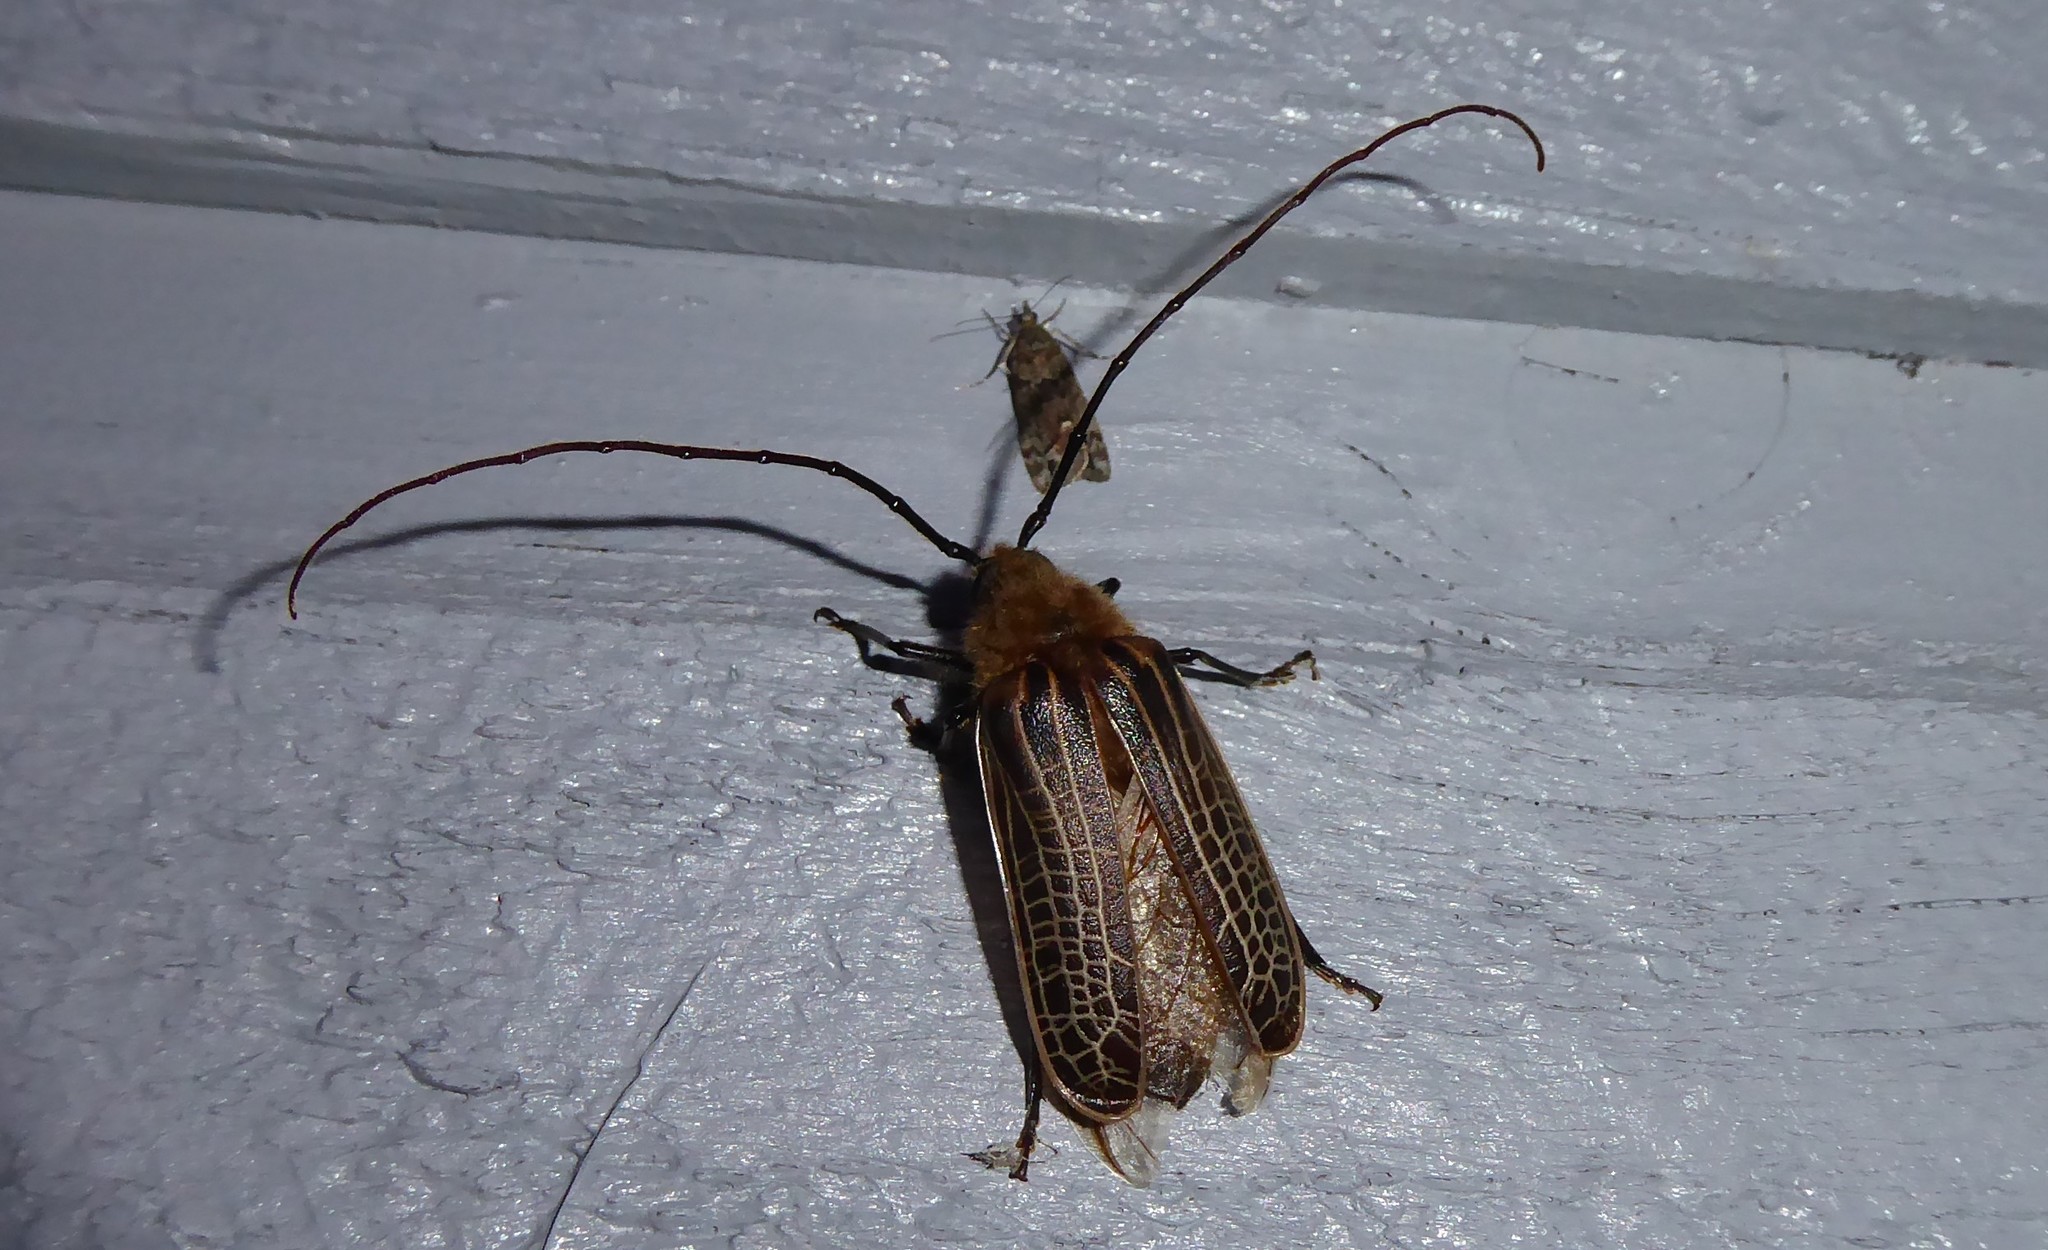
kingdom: Animalia
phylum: Arthropoda
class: Insecta
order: Coleoptera
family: Cerambycidae
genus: Prionoplus
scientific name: Prionoplus reticularis
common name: Huhu beetle
